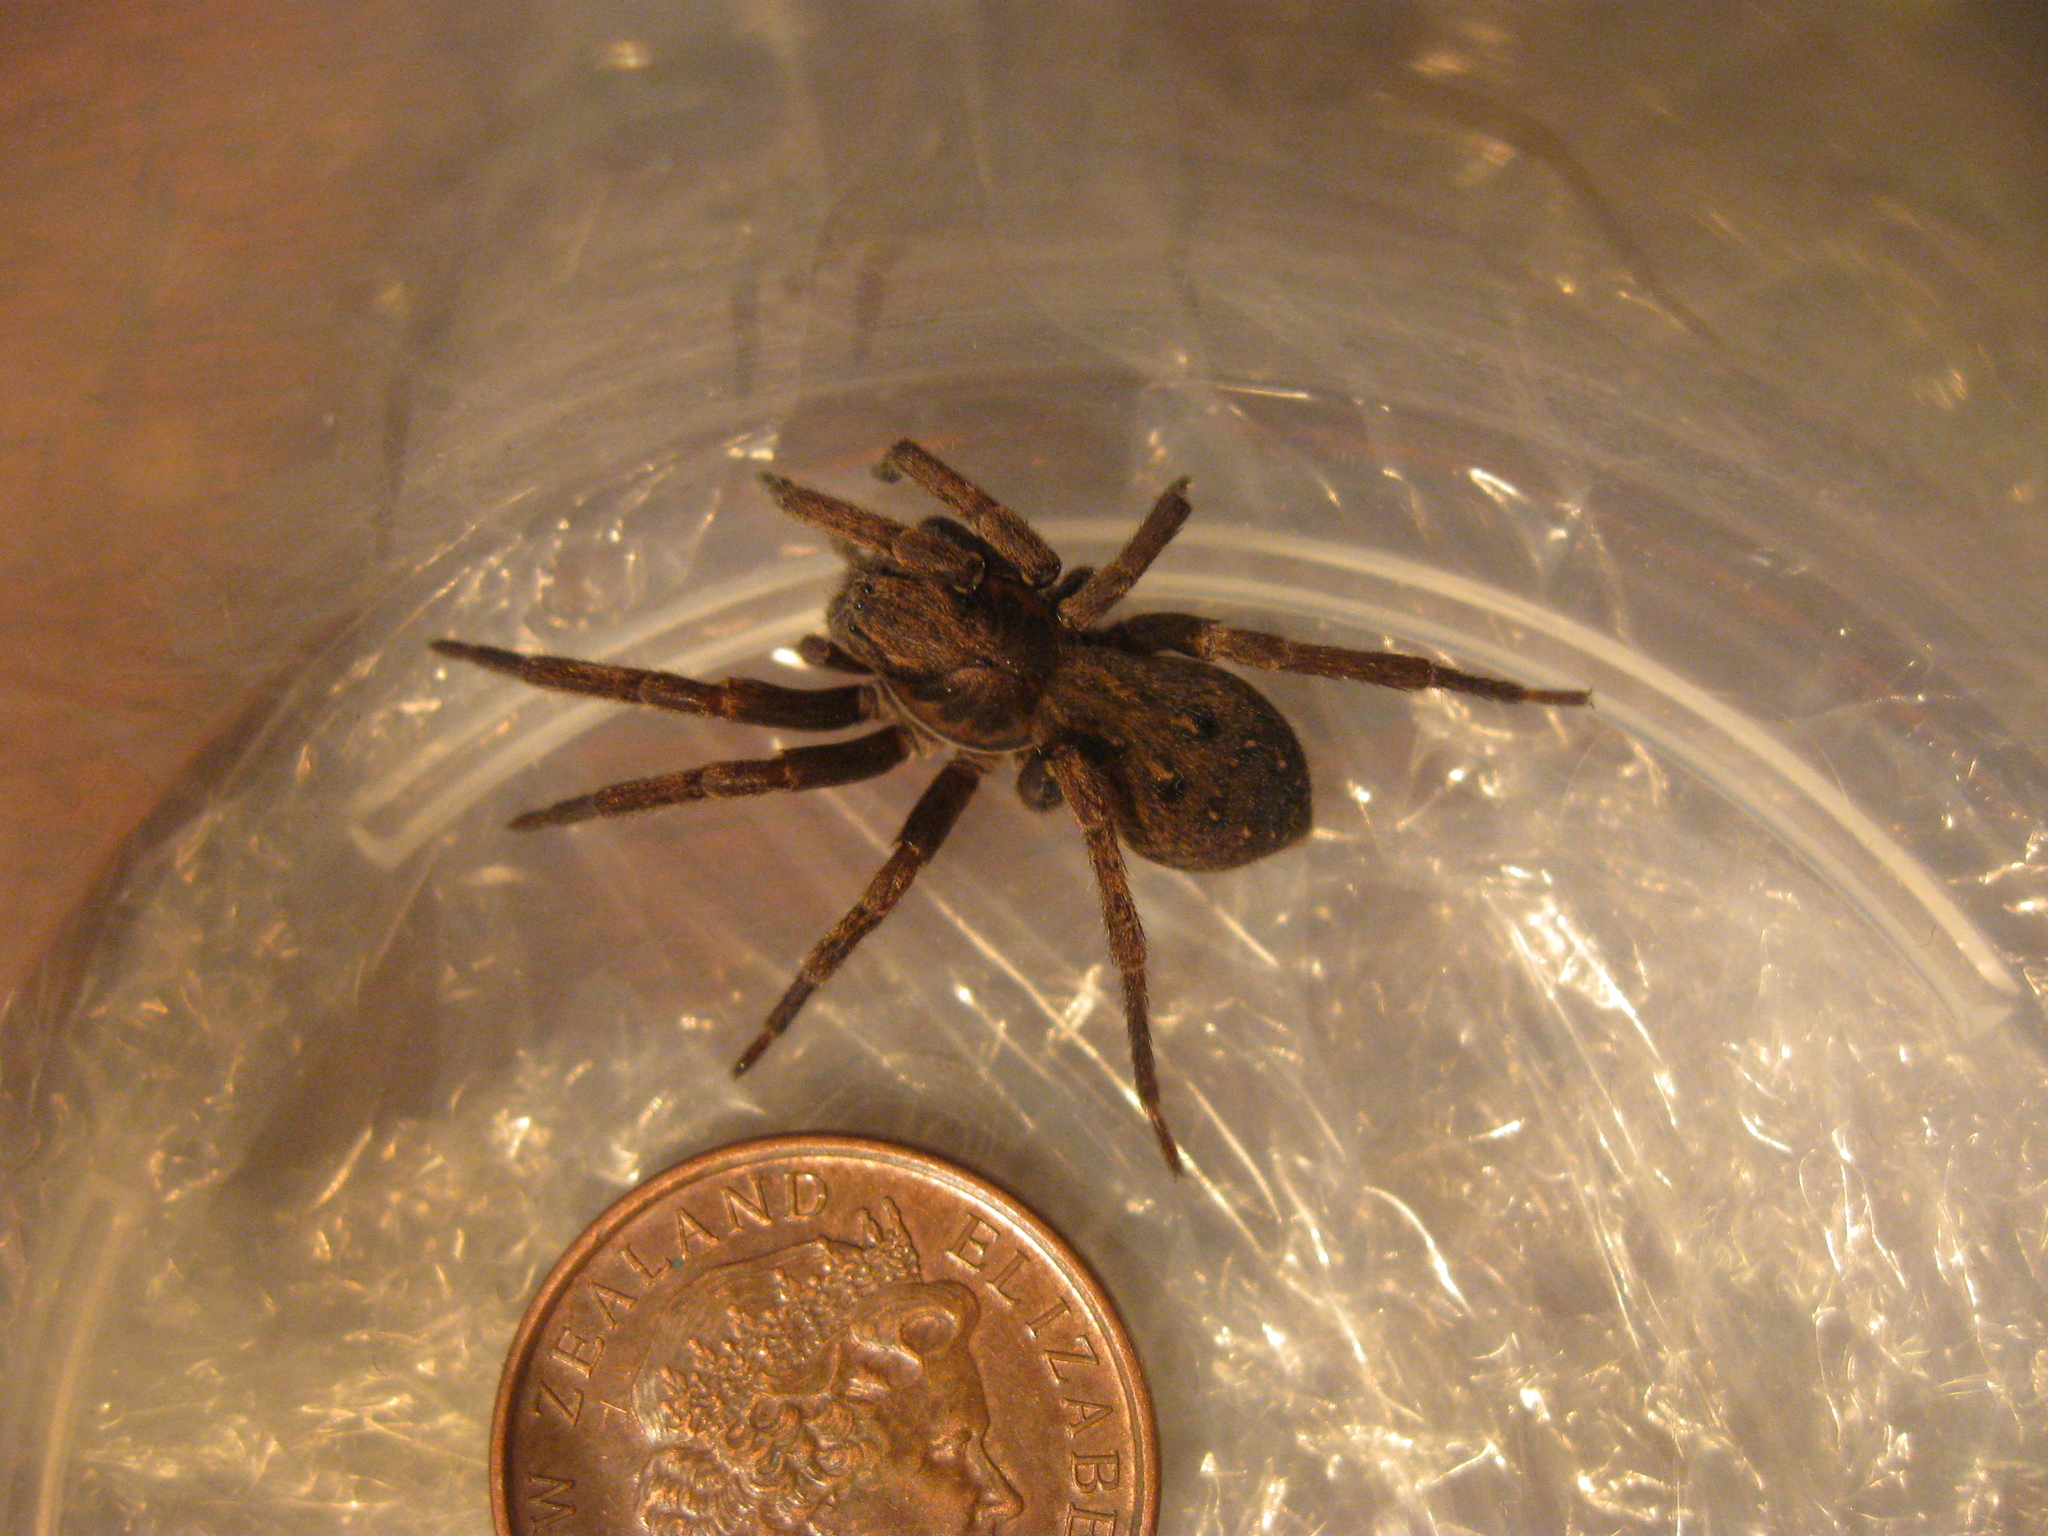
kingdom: Animalia
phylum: Arthropoda
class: Arachnida
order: Araneae
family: Zoropsidae
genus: Uliodon
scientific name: Uliodon albopunctatus
